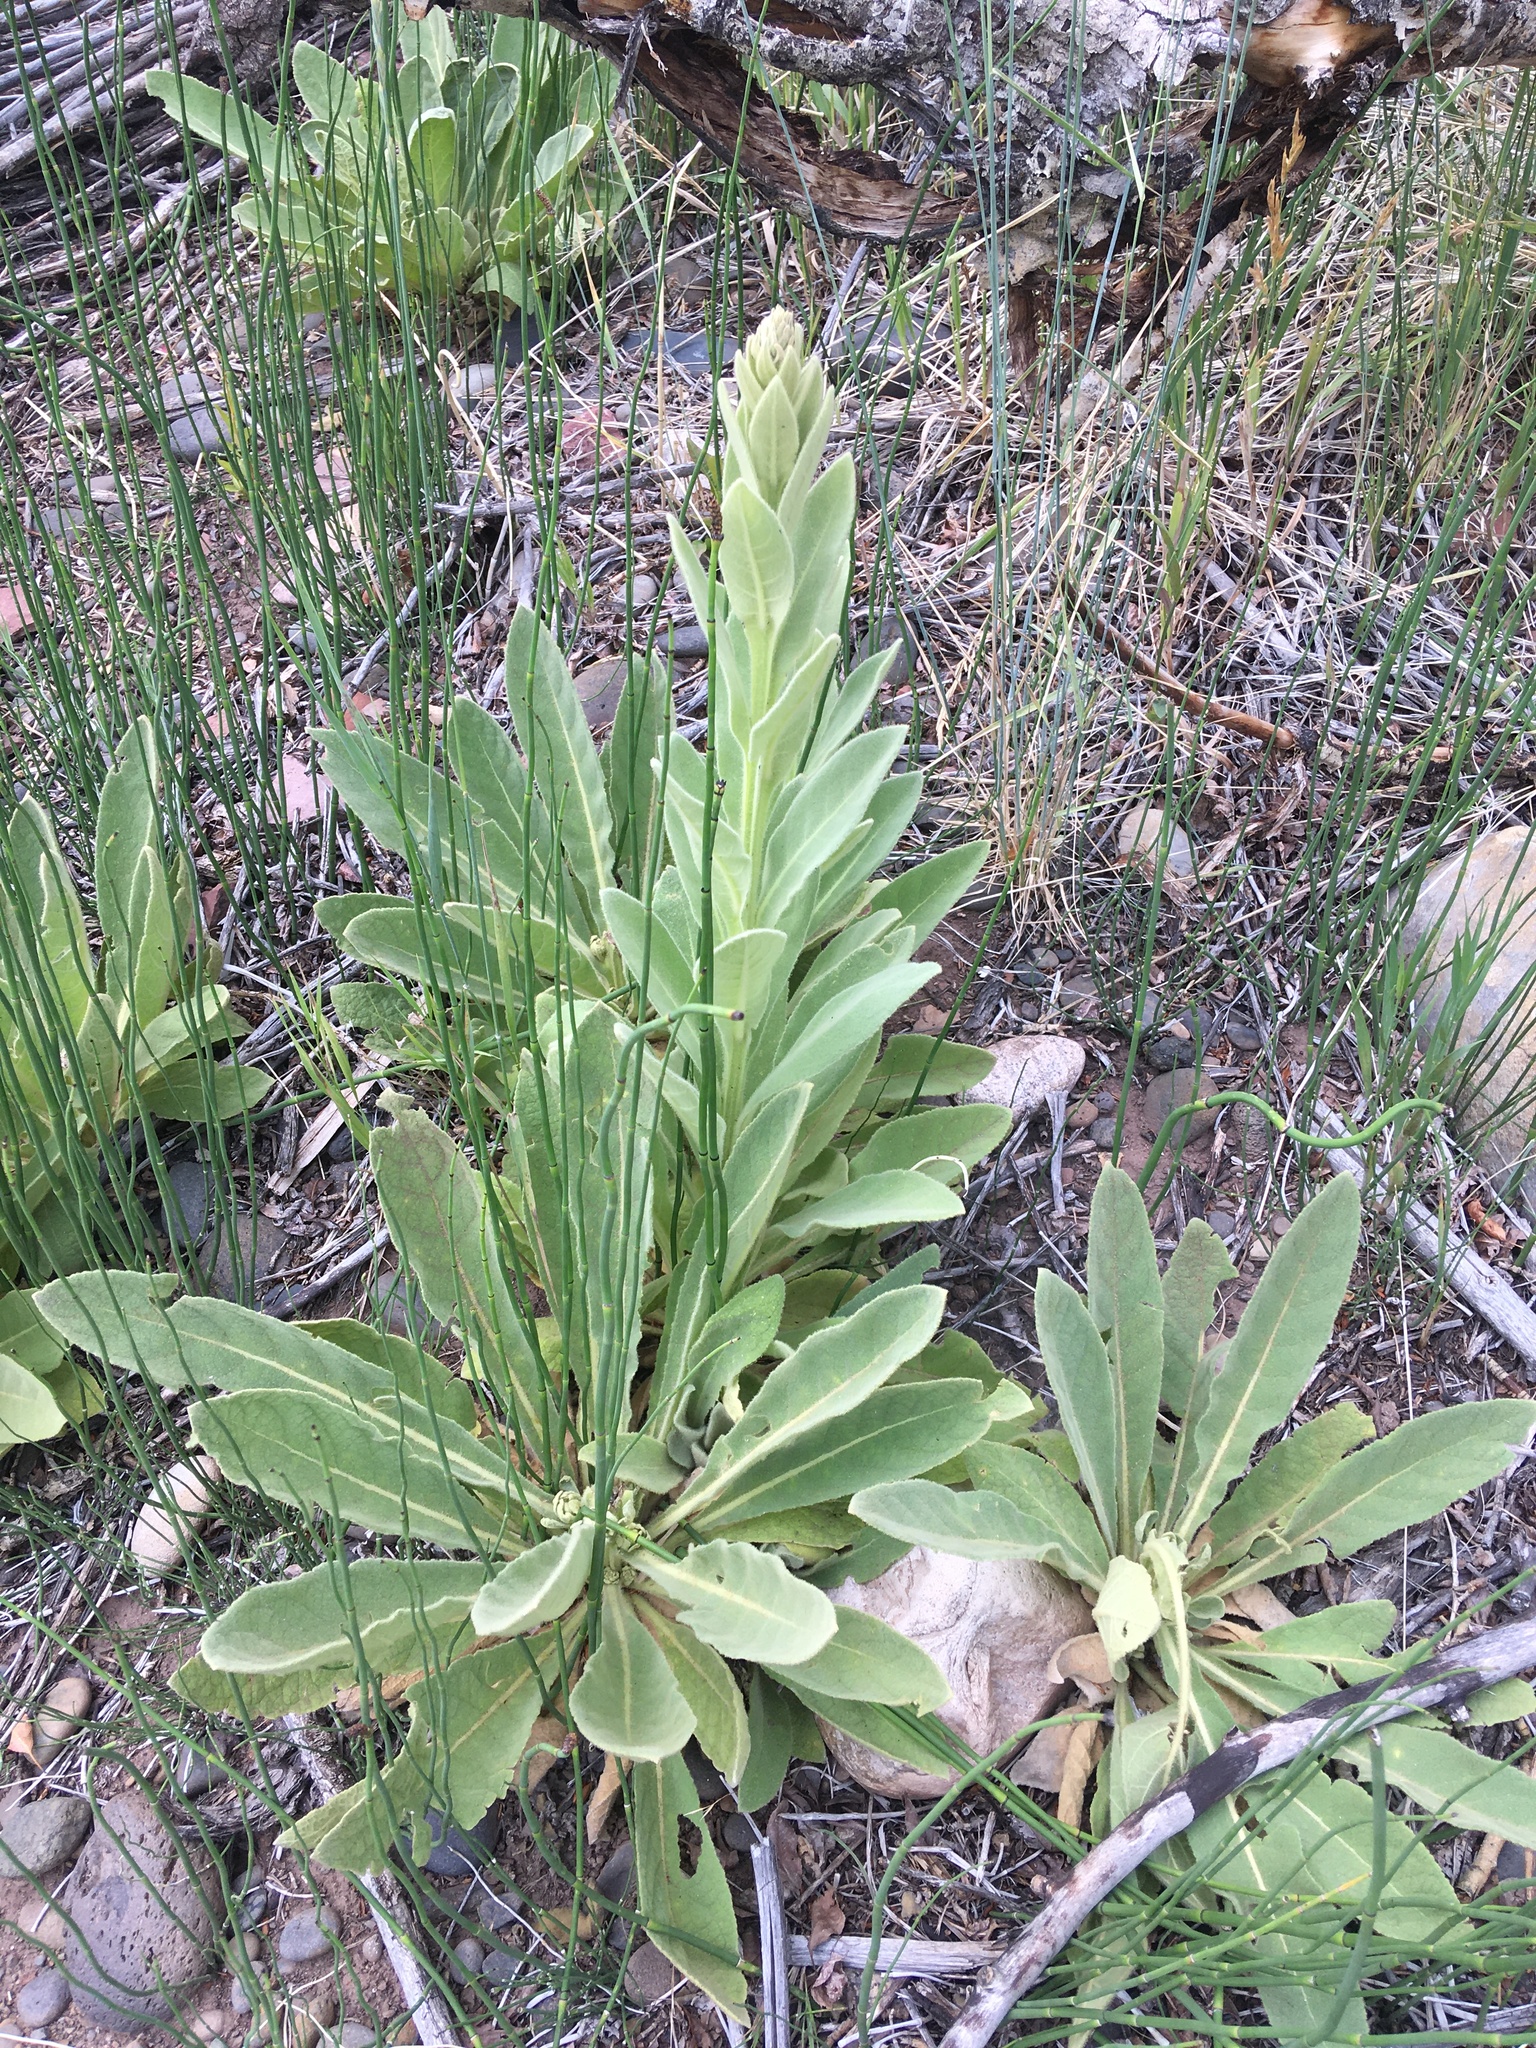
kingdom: Plantae
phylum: Tracheophyta
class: Magnoliopsida
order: Lamiales
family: Scrophulariaceae
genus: Verbascum
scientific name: Verbascum thapsus
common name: Common mullein
